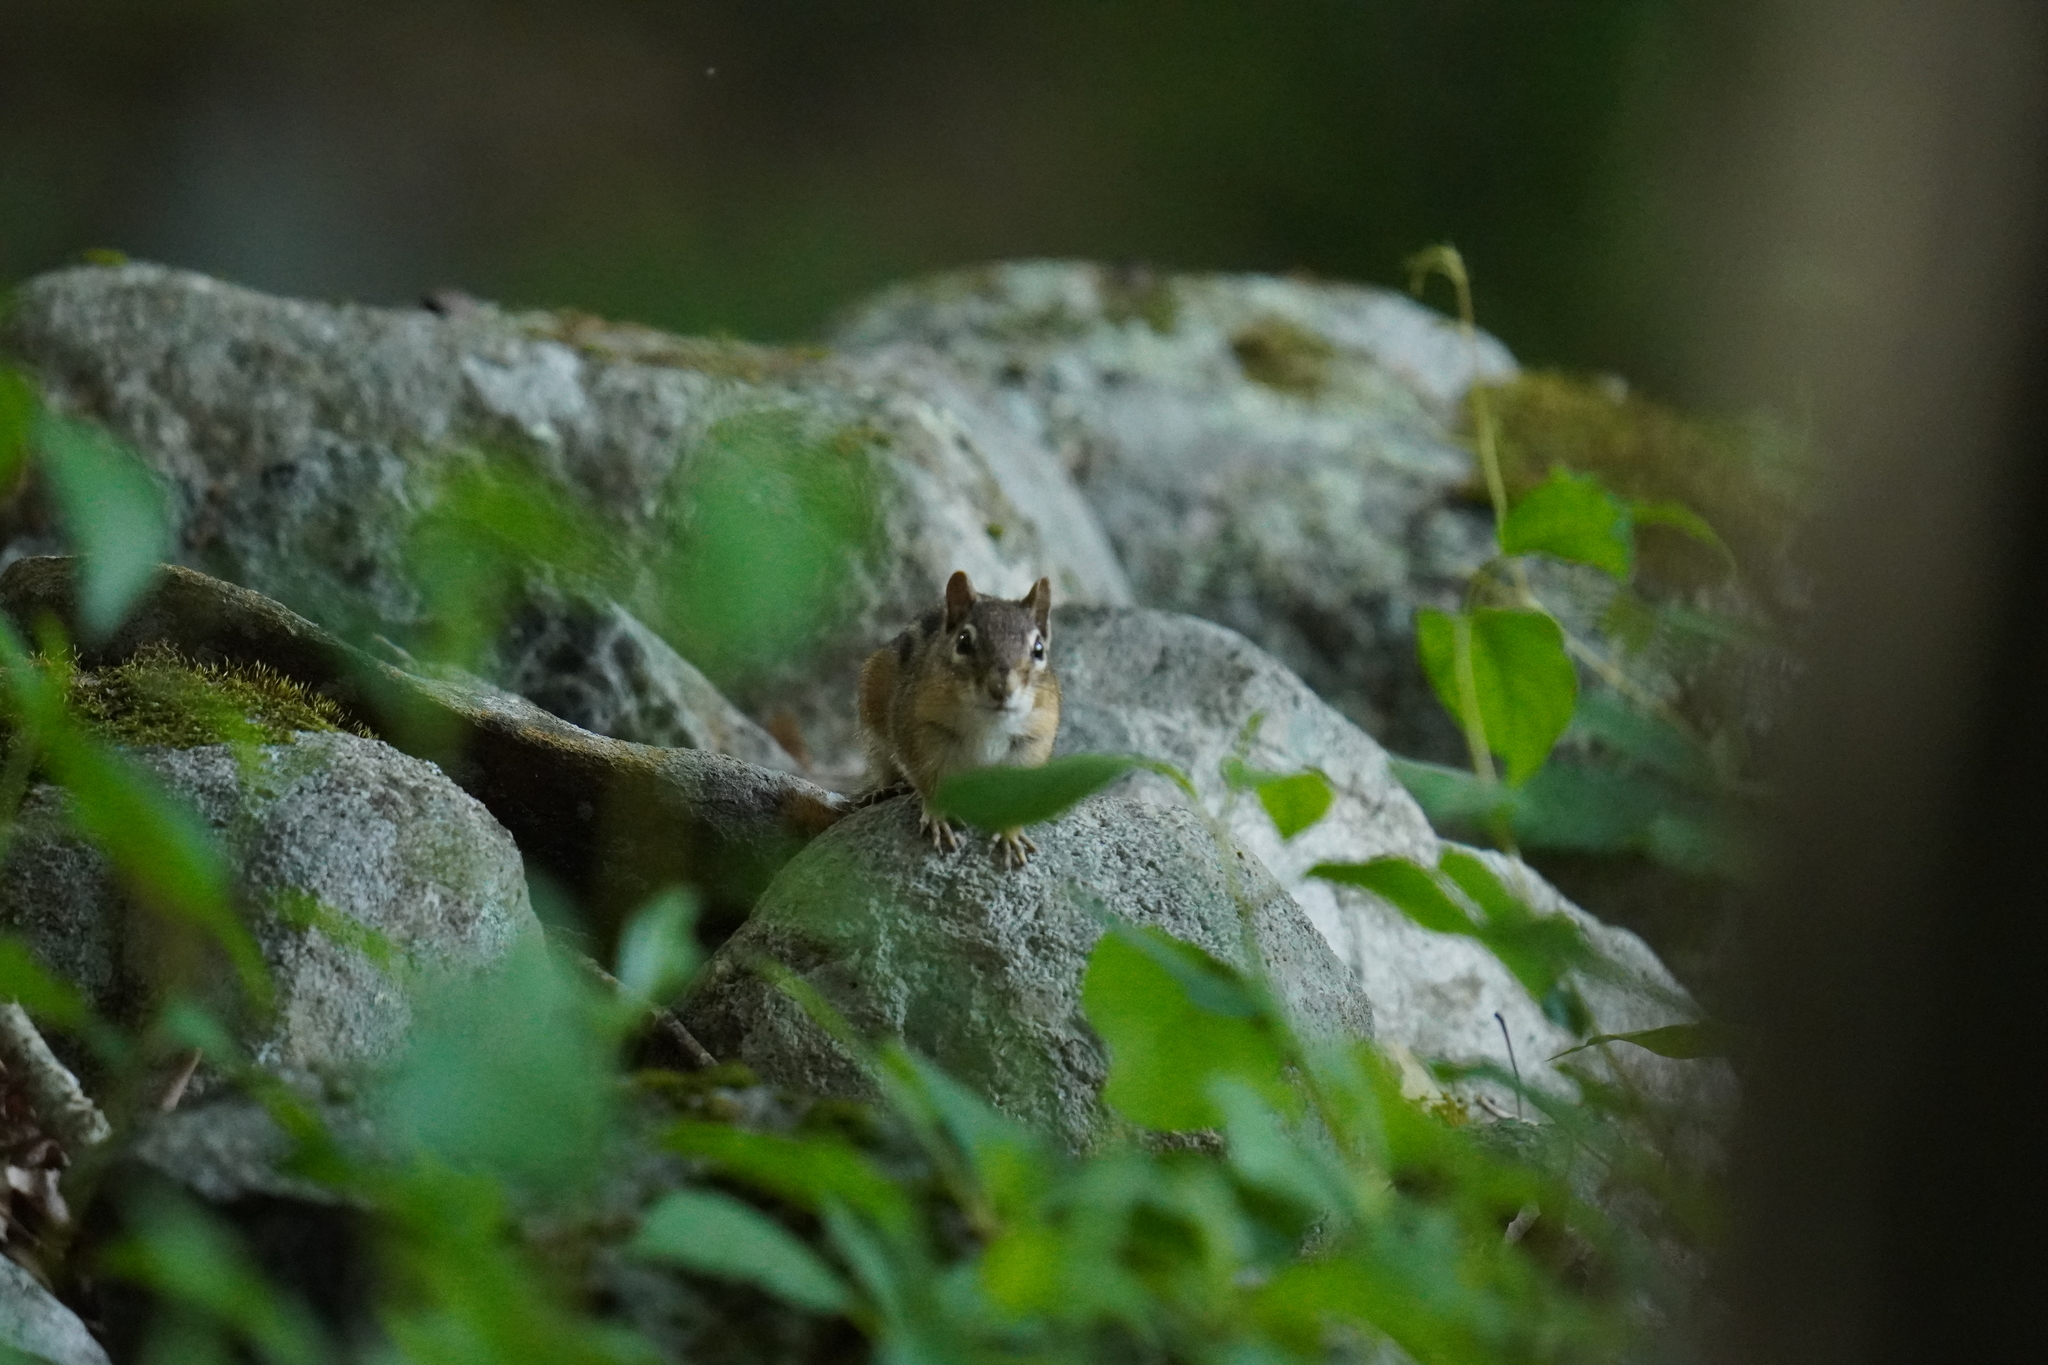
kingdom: Animalia
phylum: Chordata
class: Mammalia
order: Rodentia
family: Sciuridae
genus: Tamias
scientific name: Tamias striatus
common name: Eastern chipmunk
